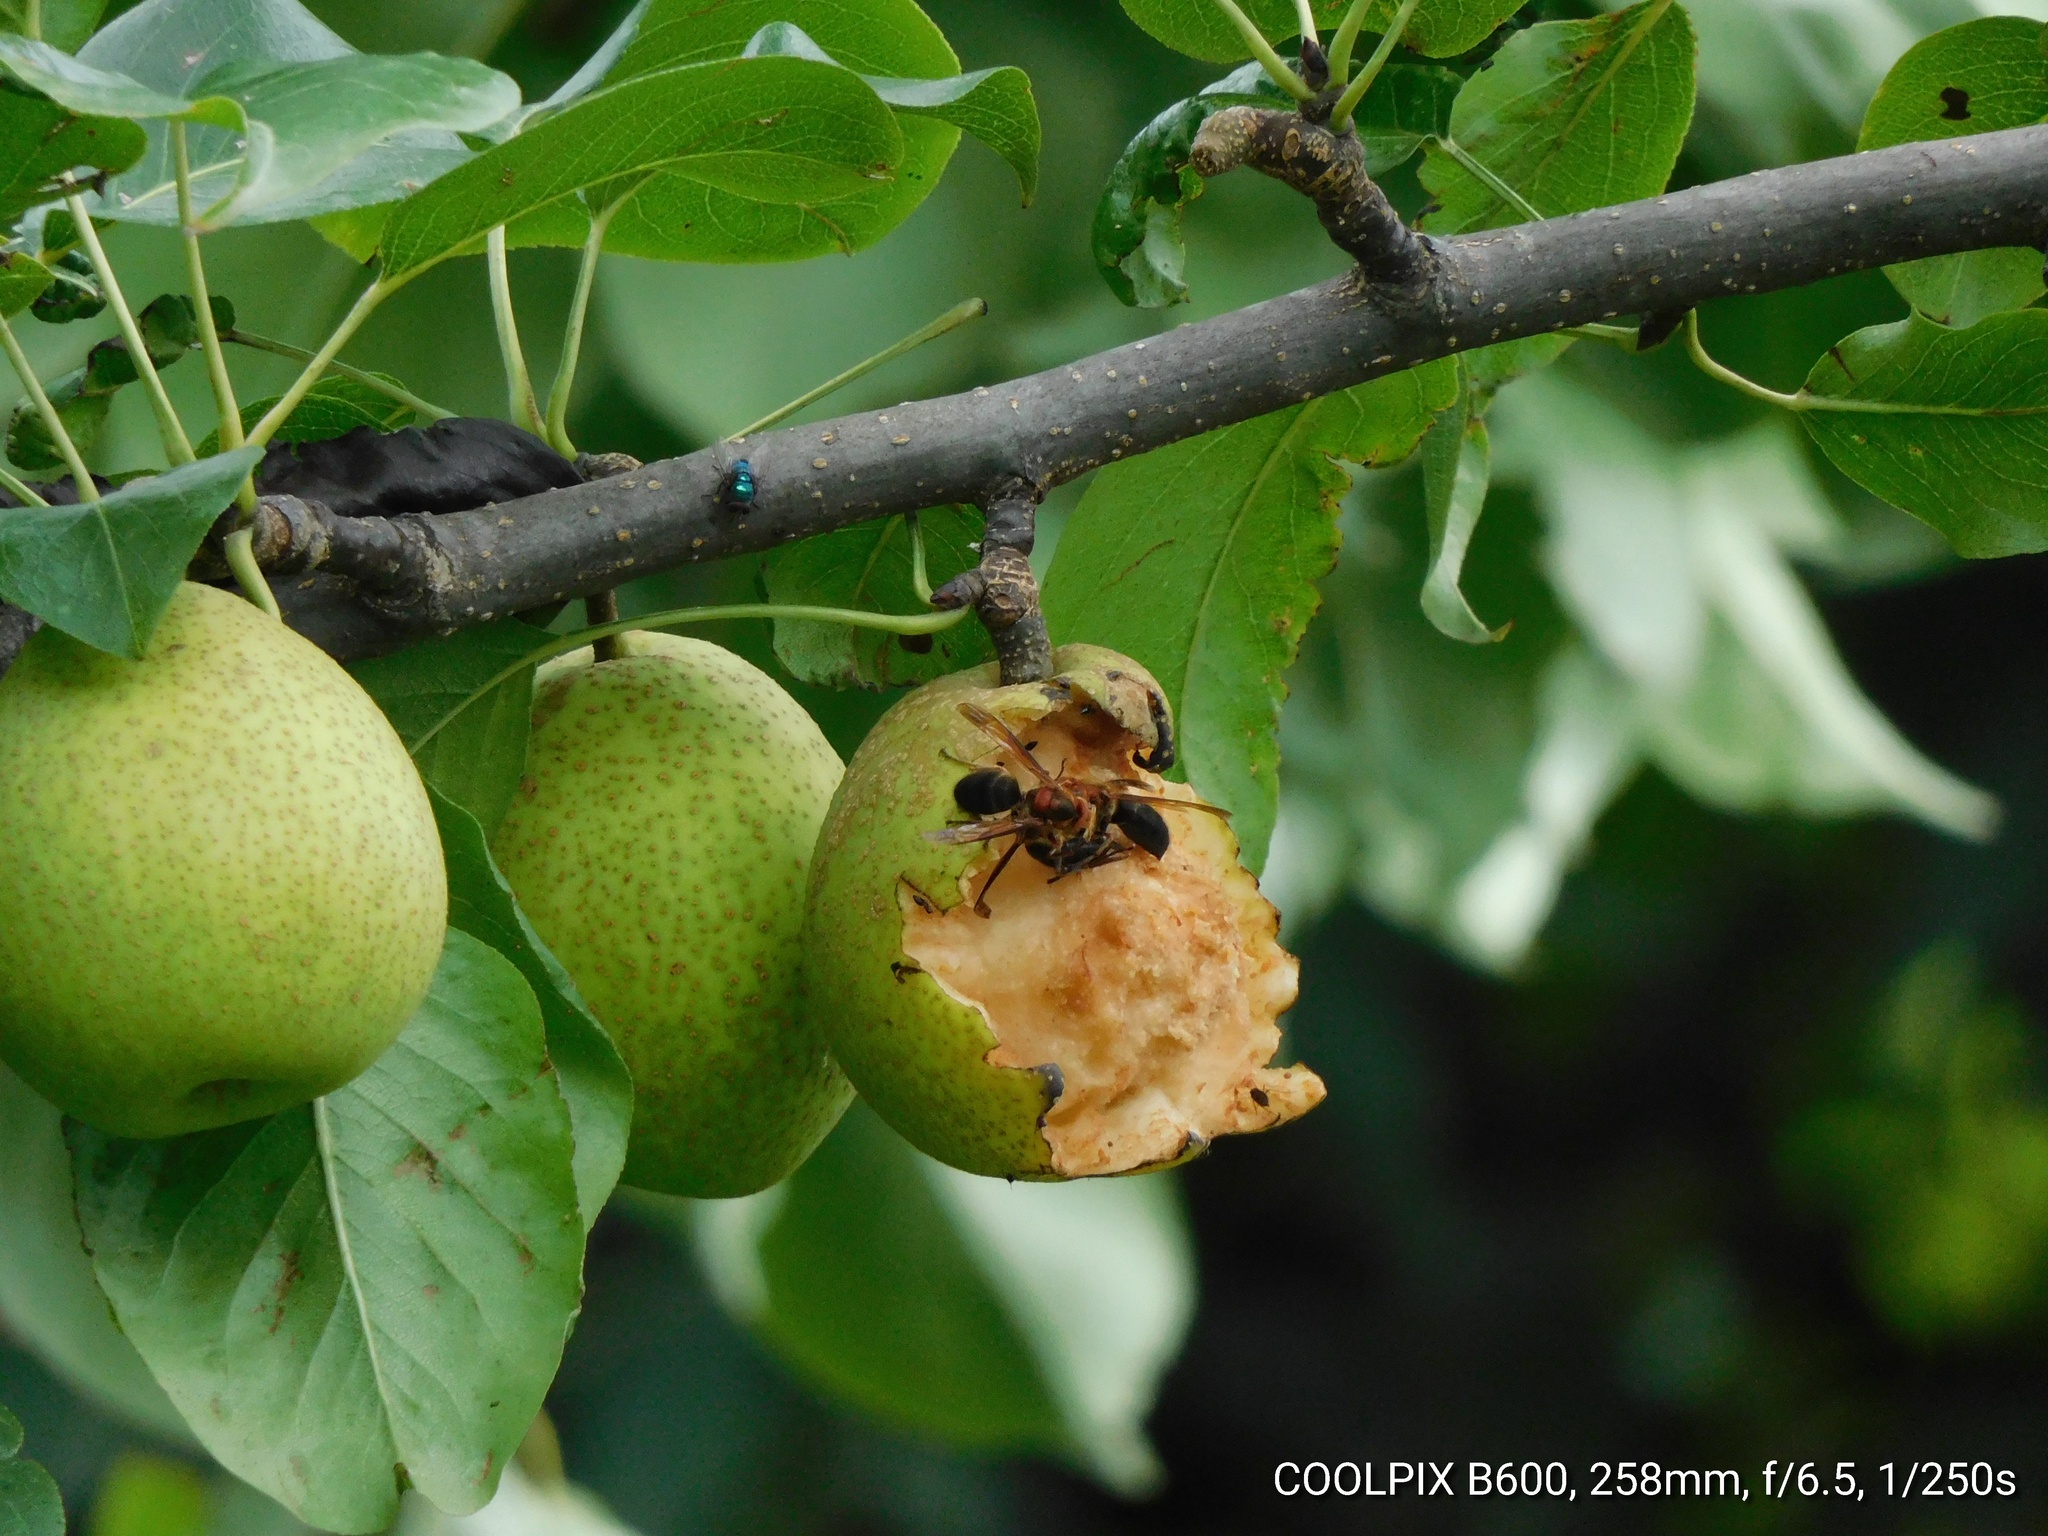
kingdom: Animalia
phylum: Arthropoda
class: Insecta
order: Hymenoptera
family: Vespidae
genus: Vespa
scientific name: Vespa basalis
